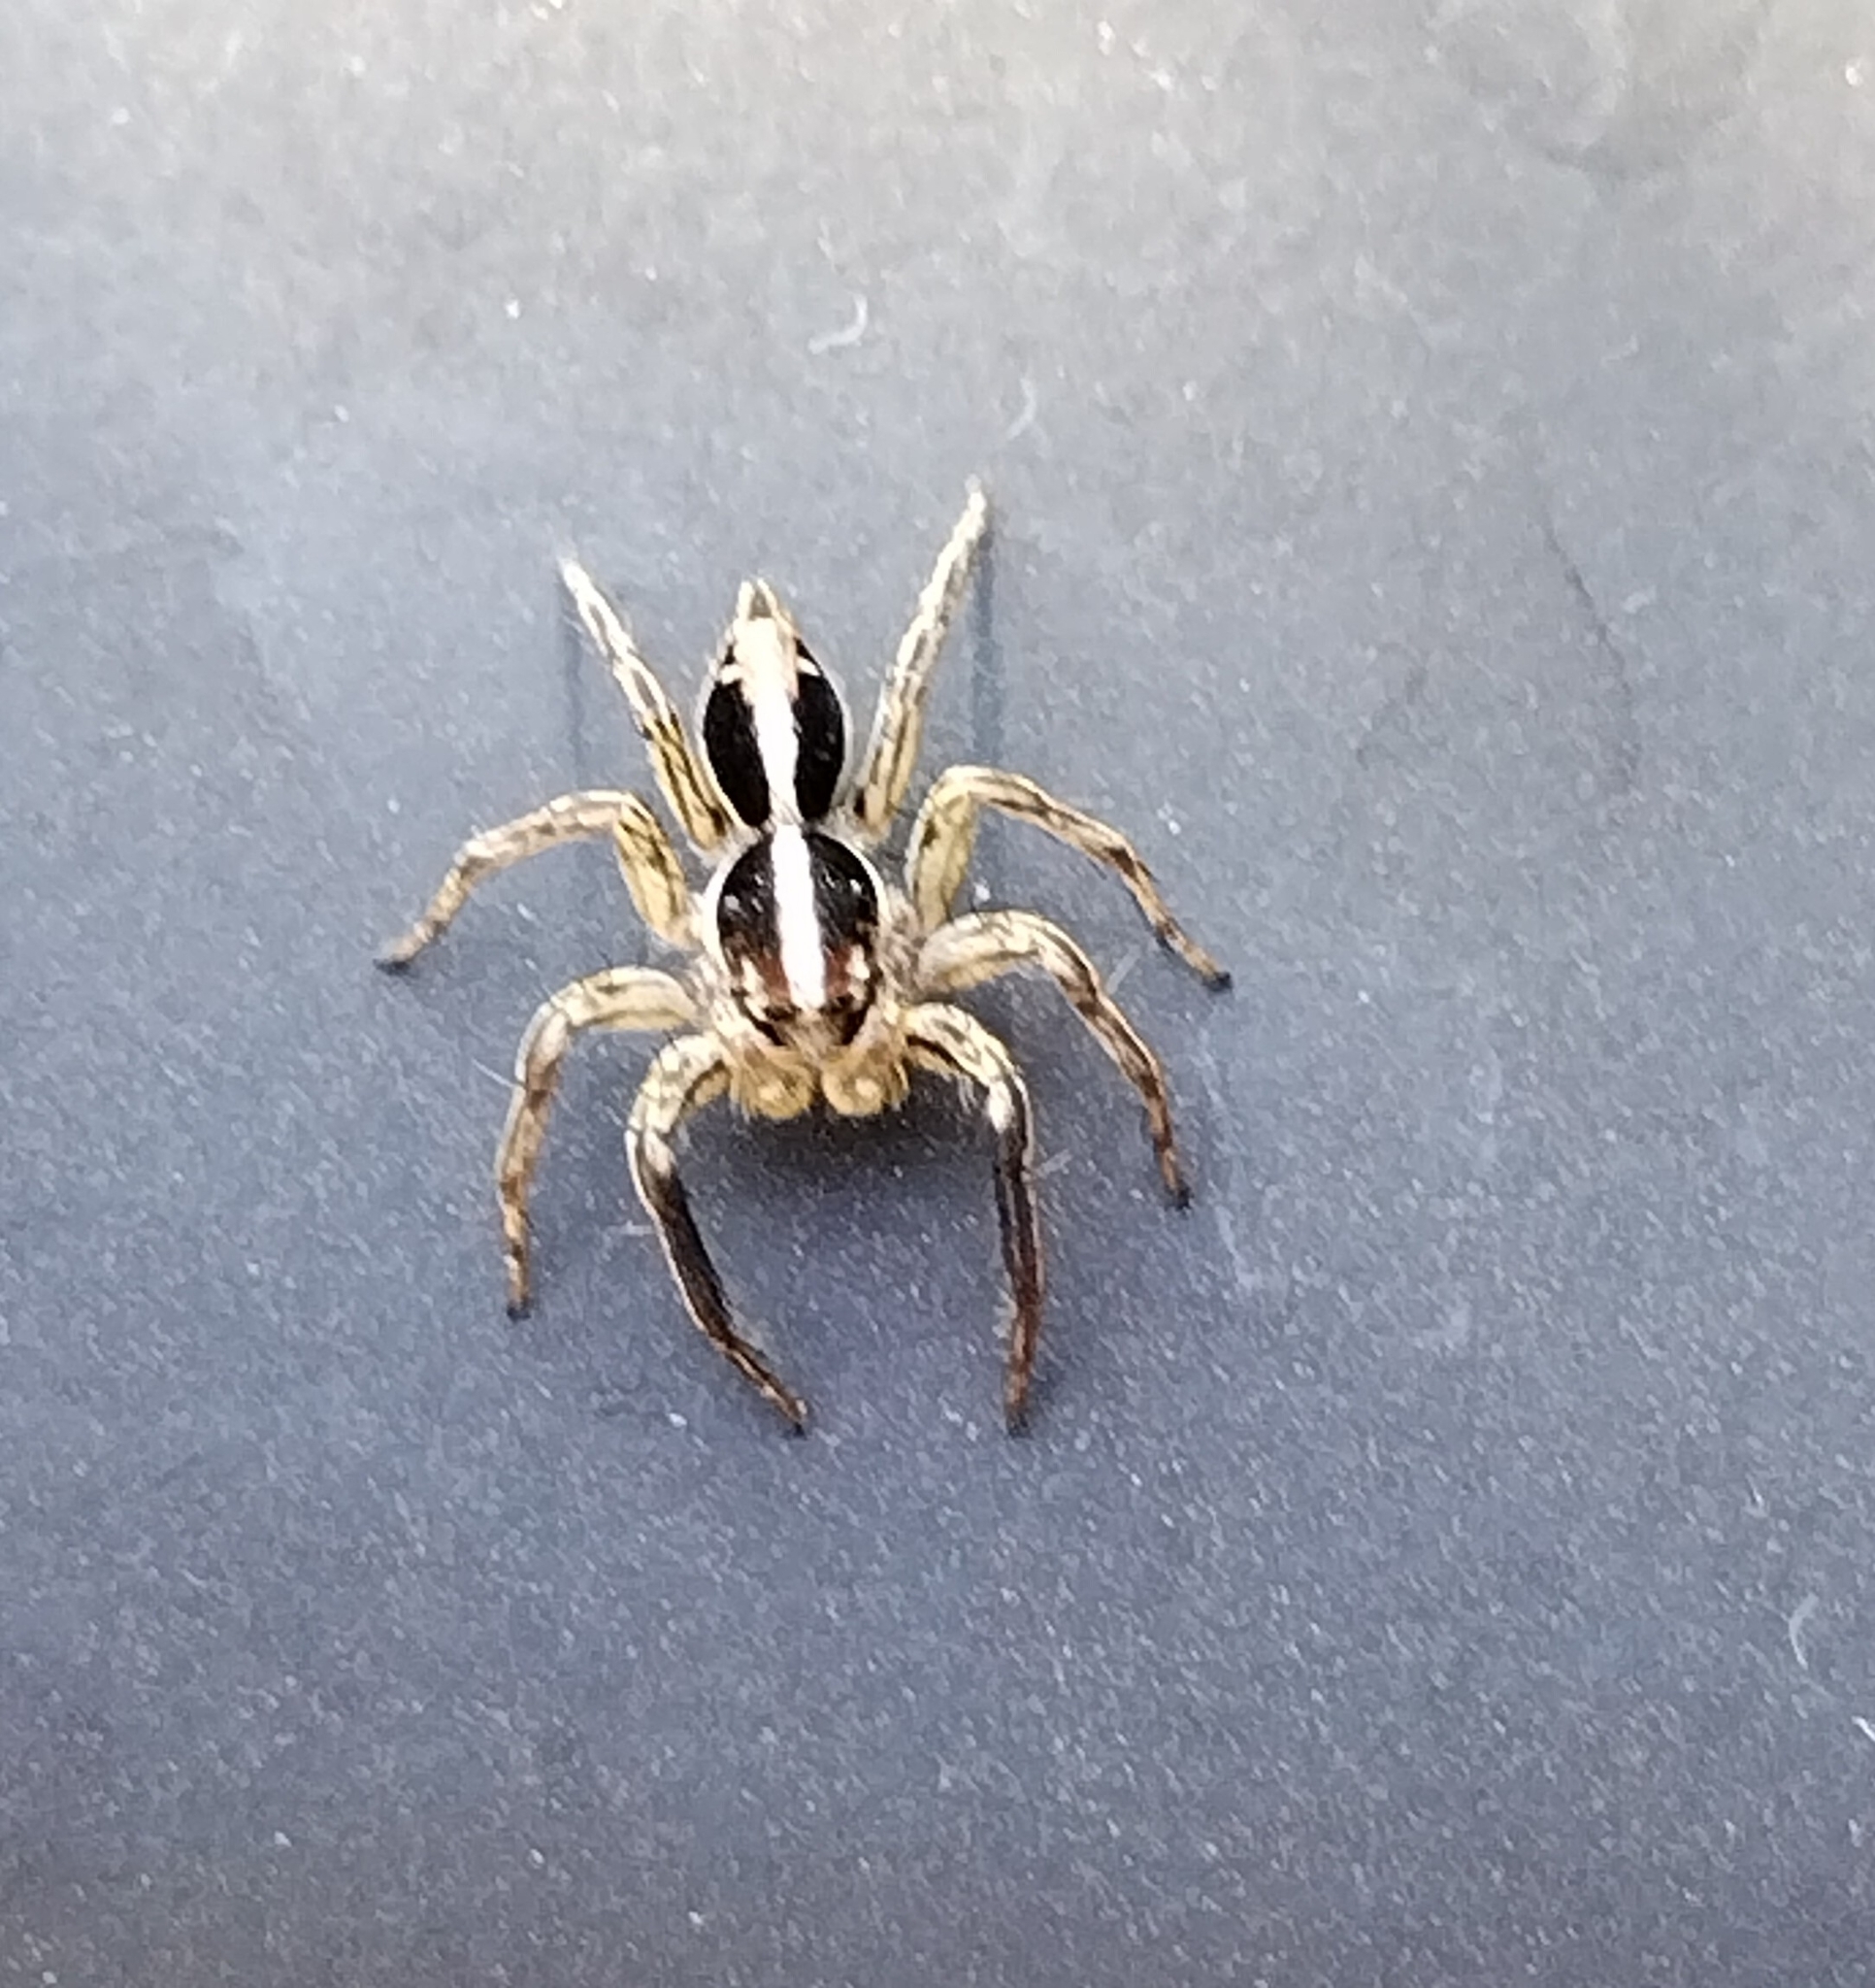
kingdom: Animalia
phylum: Arthropoda
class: Arachnida
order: Araneae
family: Salticidae
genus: Plexippus
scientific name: Plexippus paykulli
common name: Pantropical jumper
